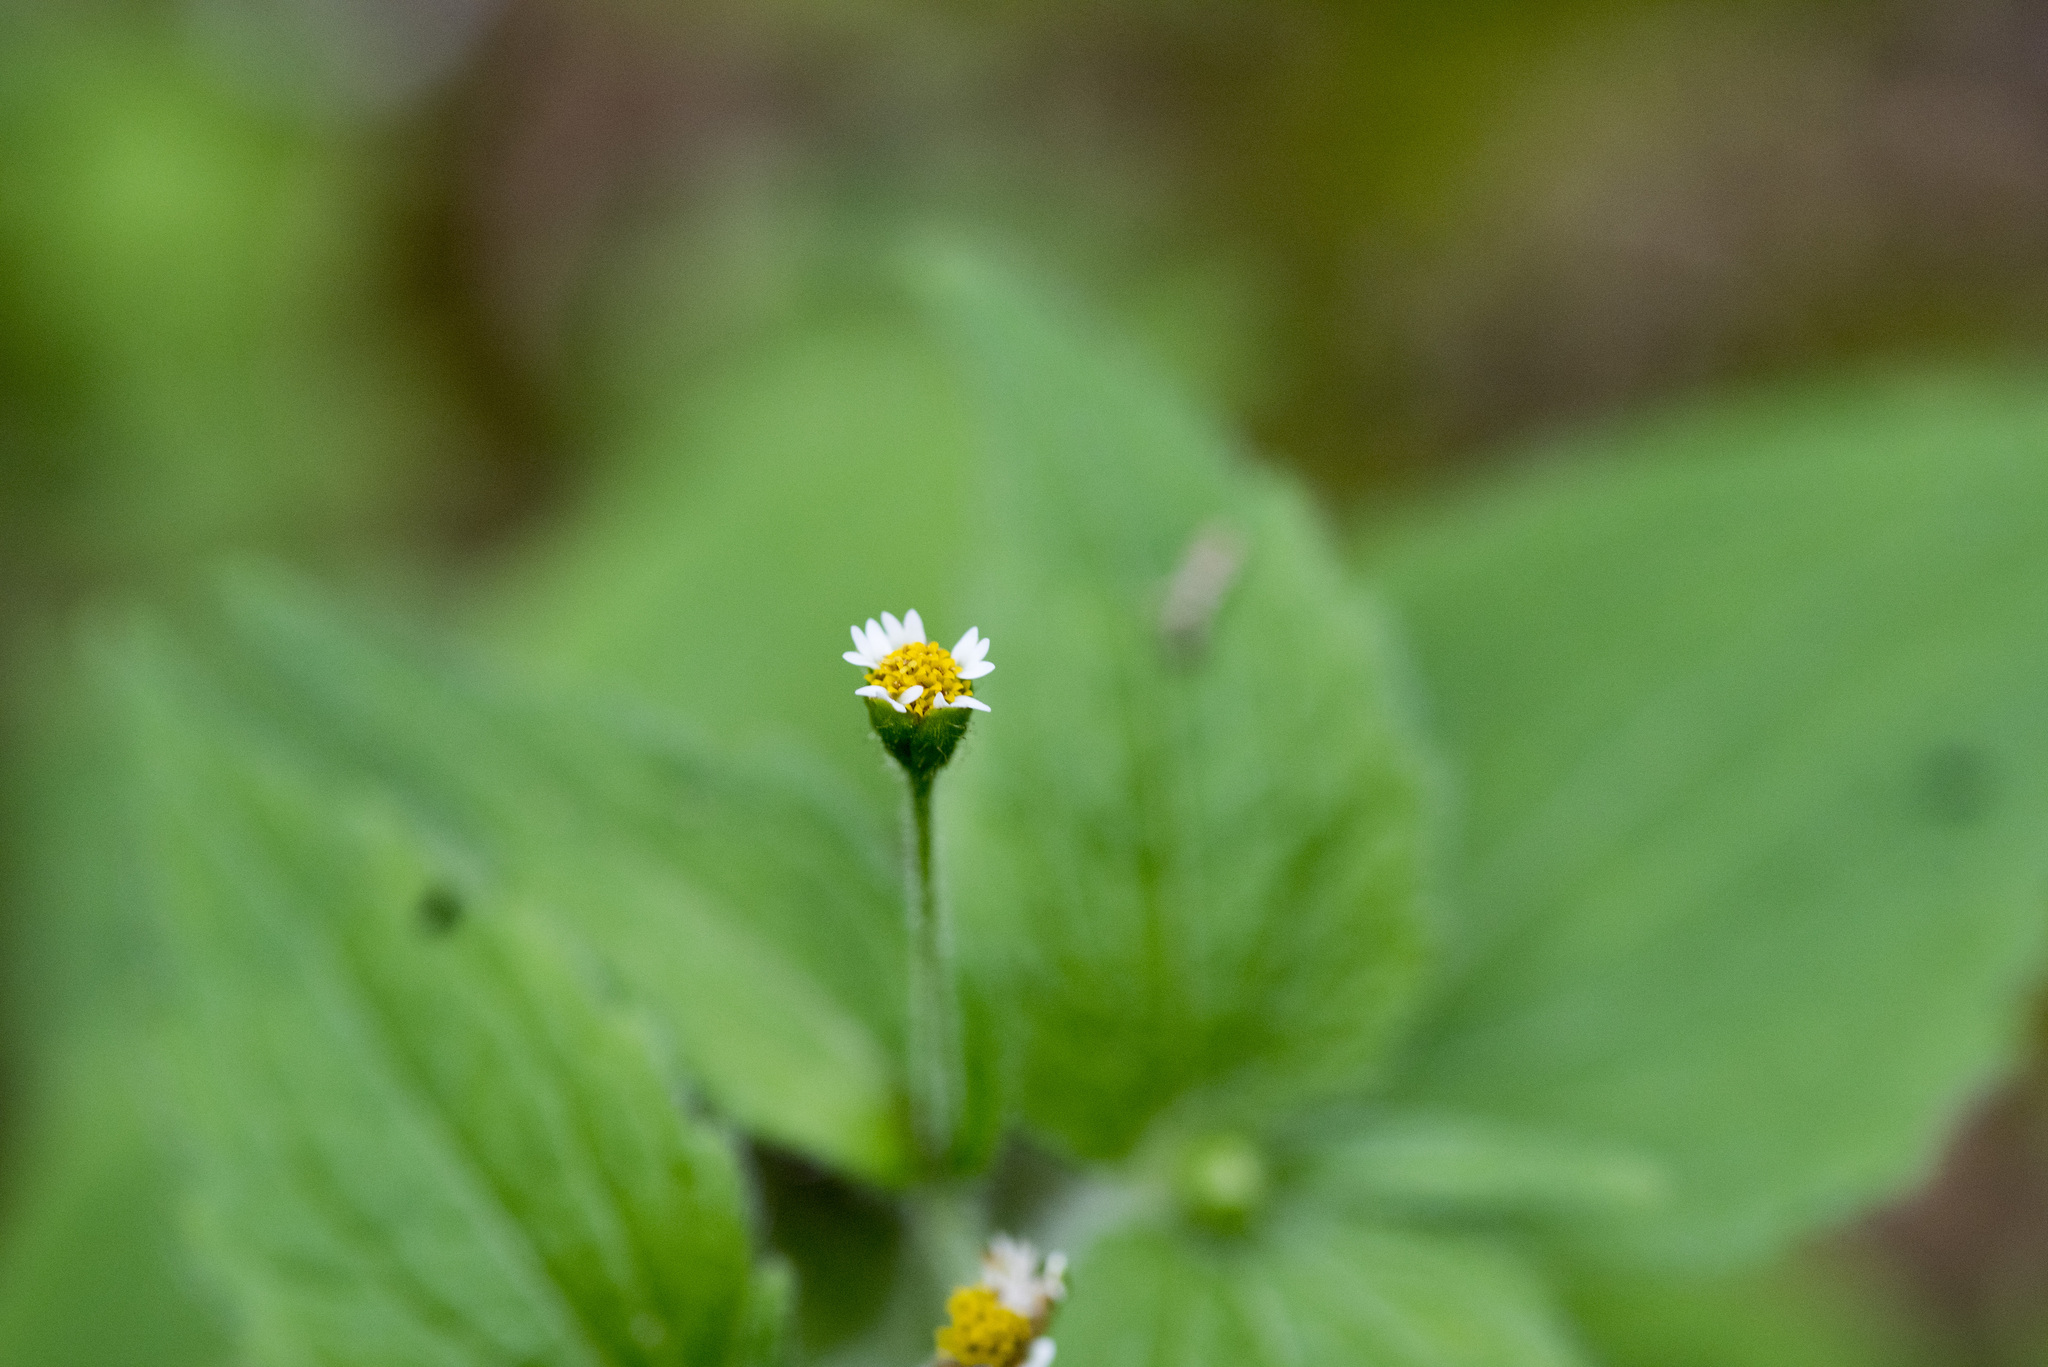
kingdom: Plantae
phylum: Tracheophyta
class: Magnoliopsida
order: Asterales
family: Asteraceae
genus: Galinsoga
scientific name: Galinsoga quadriradiata
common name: Shaggy soldier
